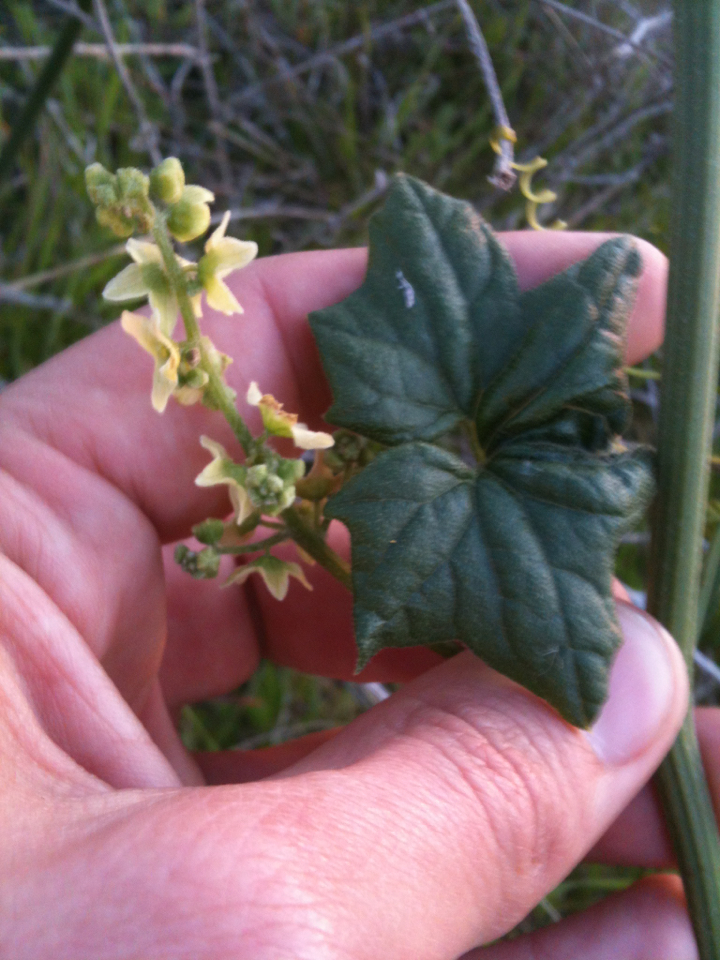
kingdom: Plantae
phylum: Tracheophyta
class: Magnoliopsida
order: Cucurbitales
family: Cucurbitaceae
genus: Marah
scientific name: Marah fabacea
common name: California manroot
